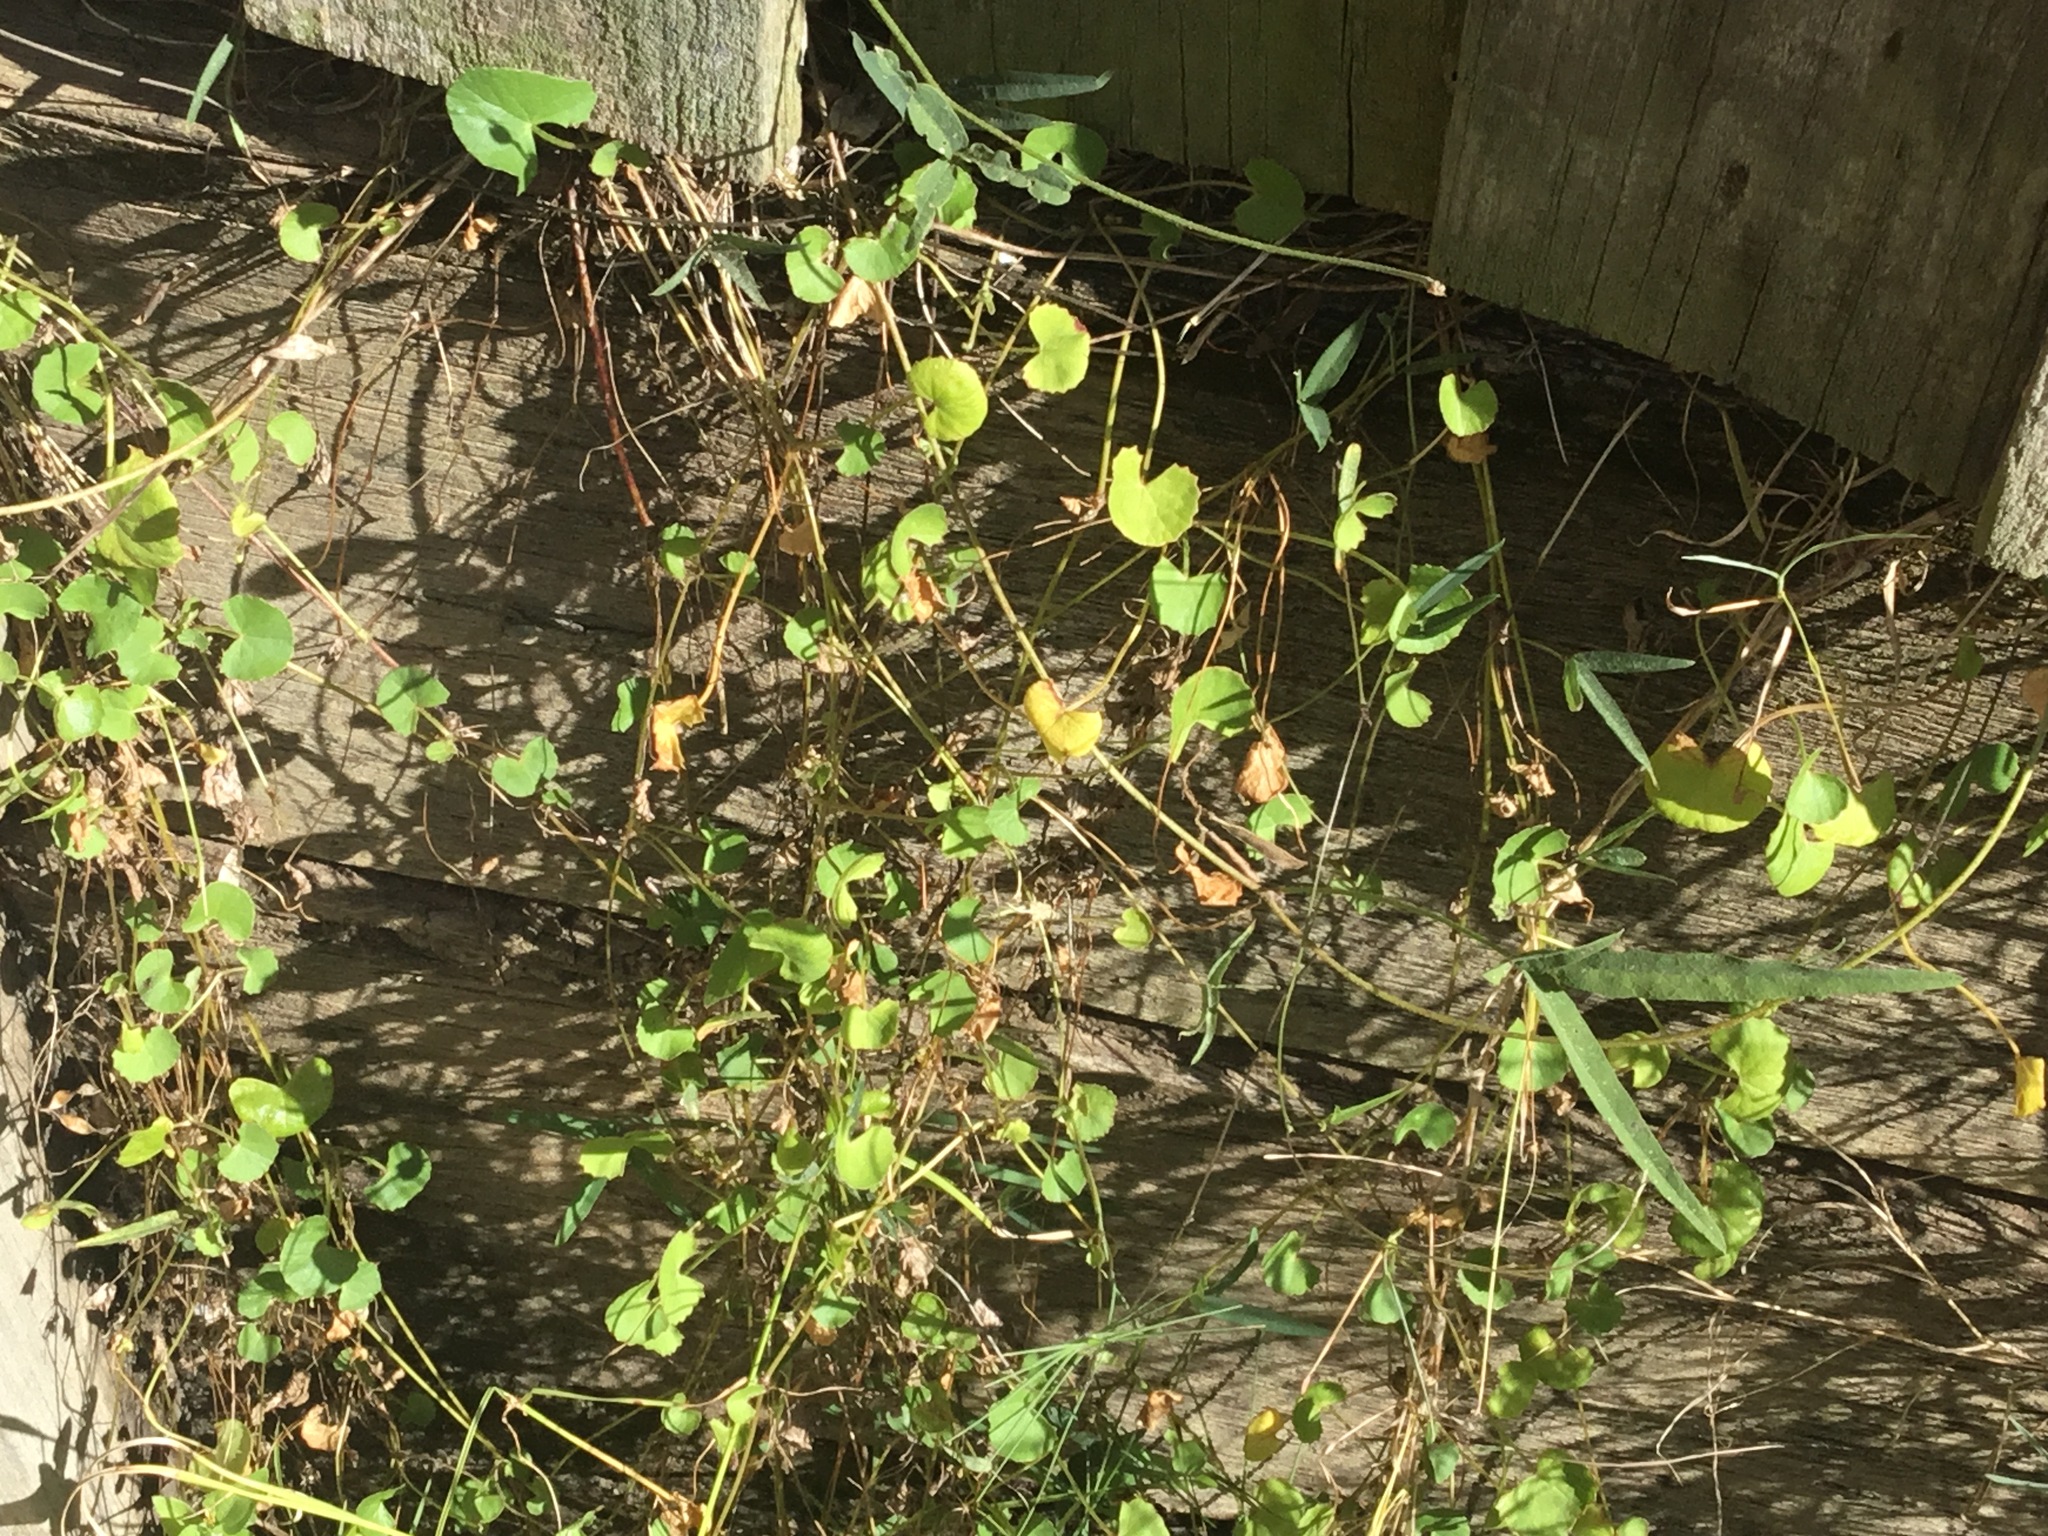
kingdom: Plantae
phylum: Tracheophyta
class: Magnoliopsida
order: Apiales
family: Apiaceae
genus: Centella
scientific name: Centella asiatica
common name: Spadeleaf
